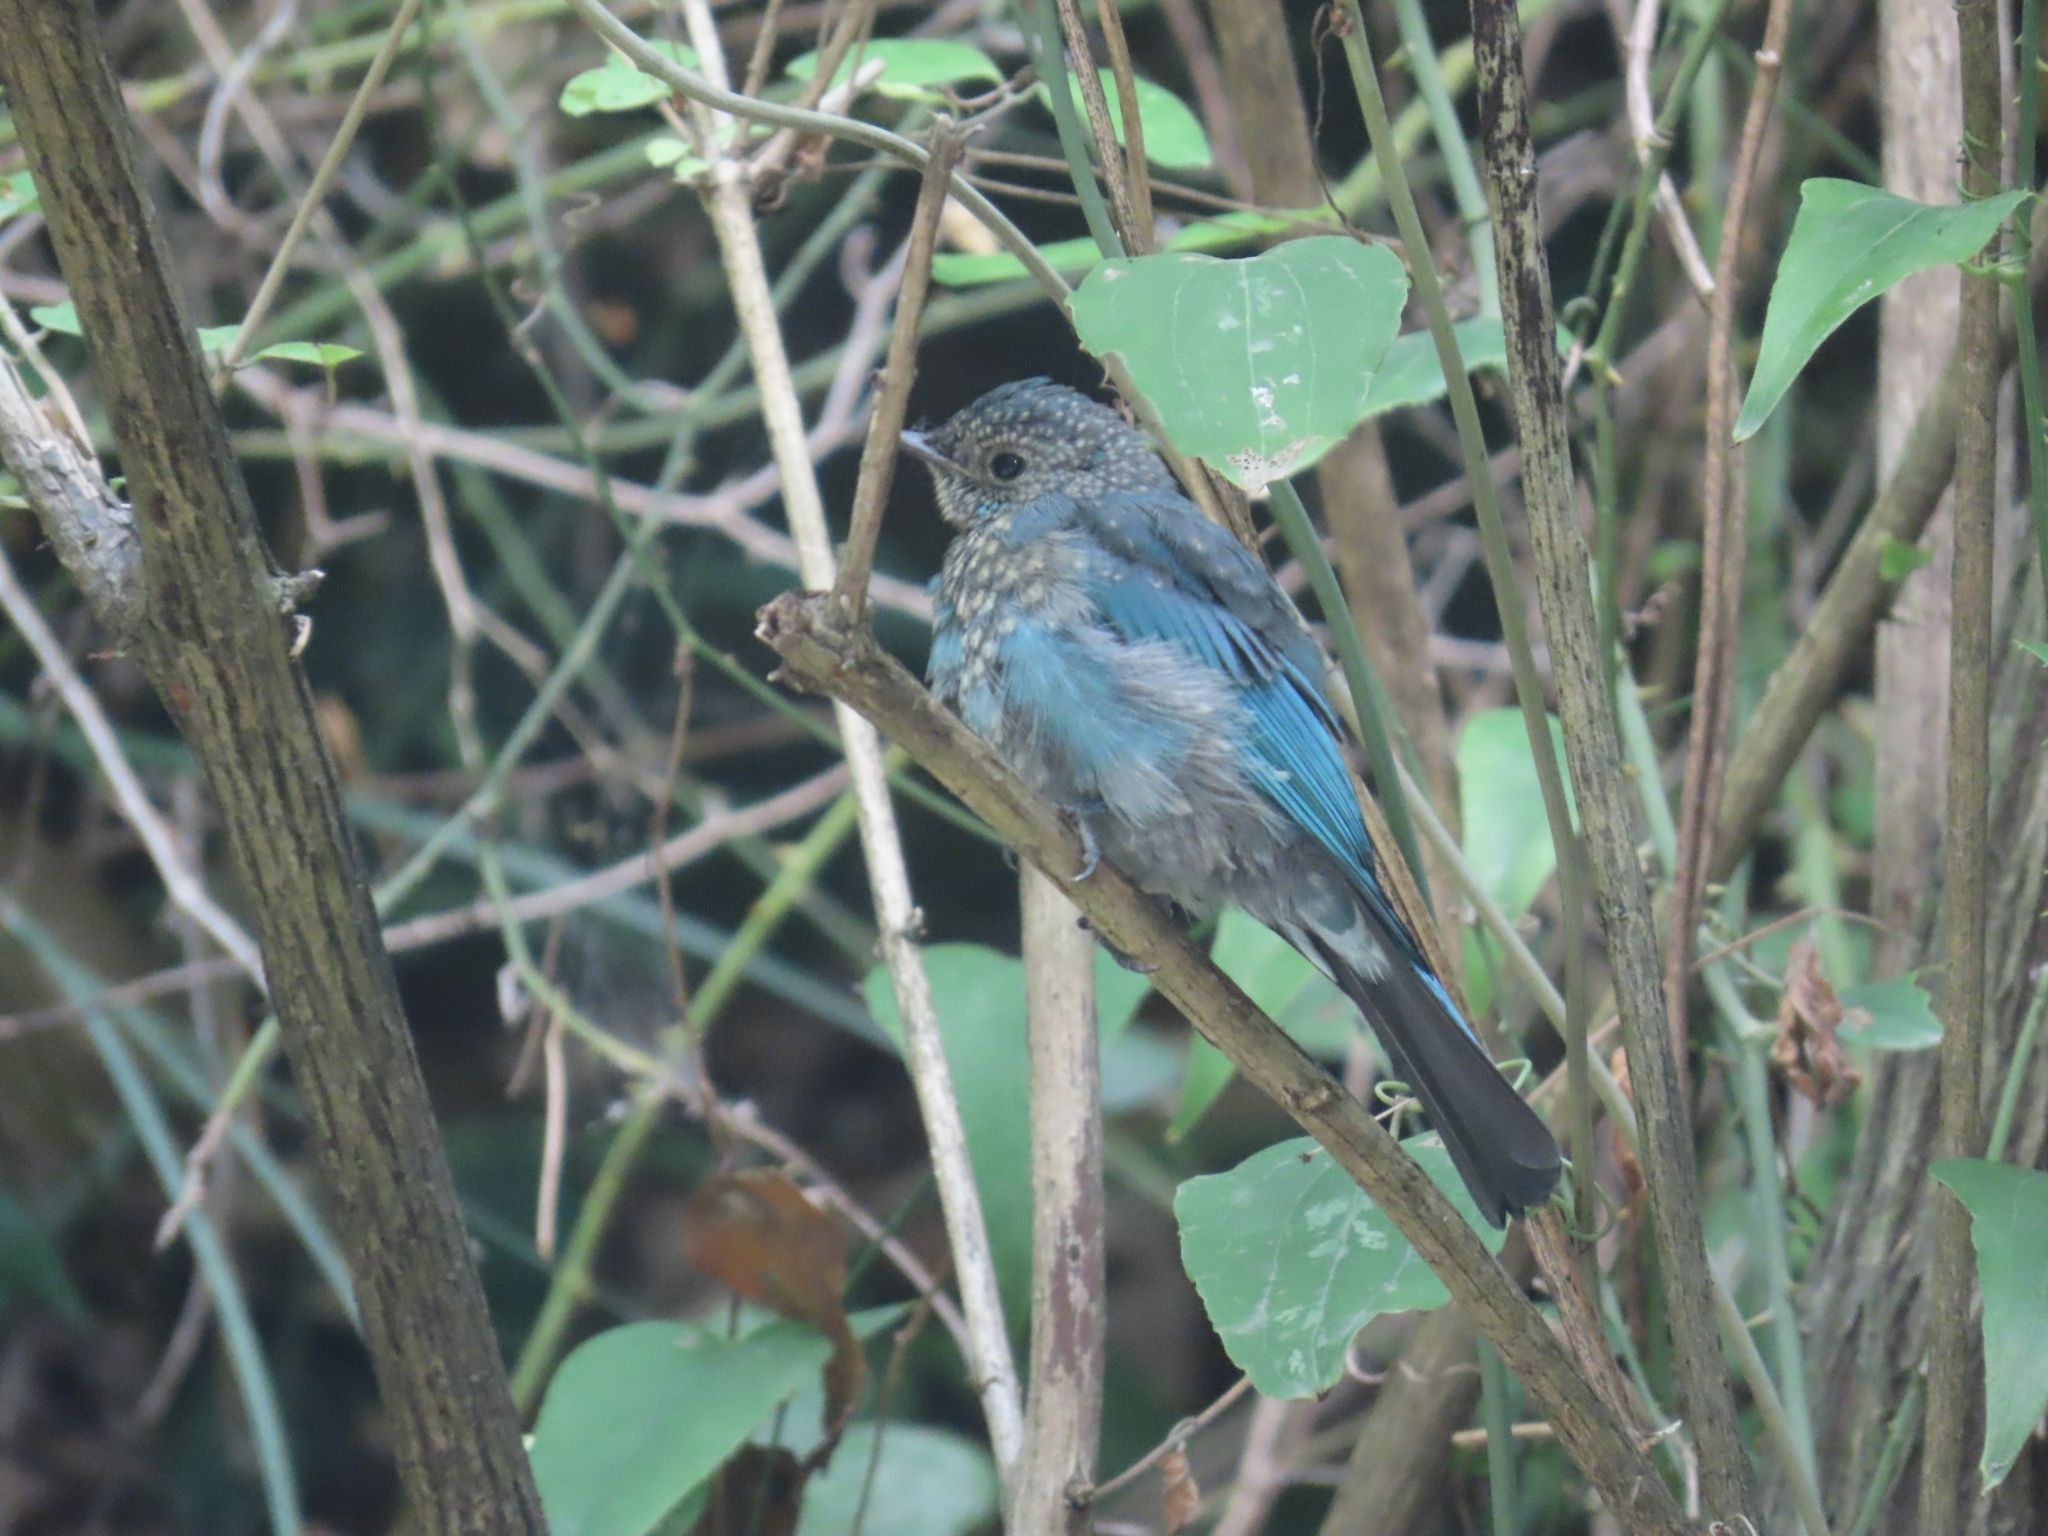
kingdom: Animalia
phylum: Chordata
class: Aves
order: Passeriformes
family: Muscicapidae
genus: Eumyias
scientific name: Eumyias thalassinus
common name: Verditer flycatcher
